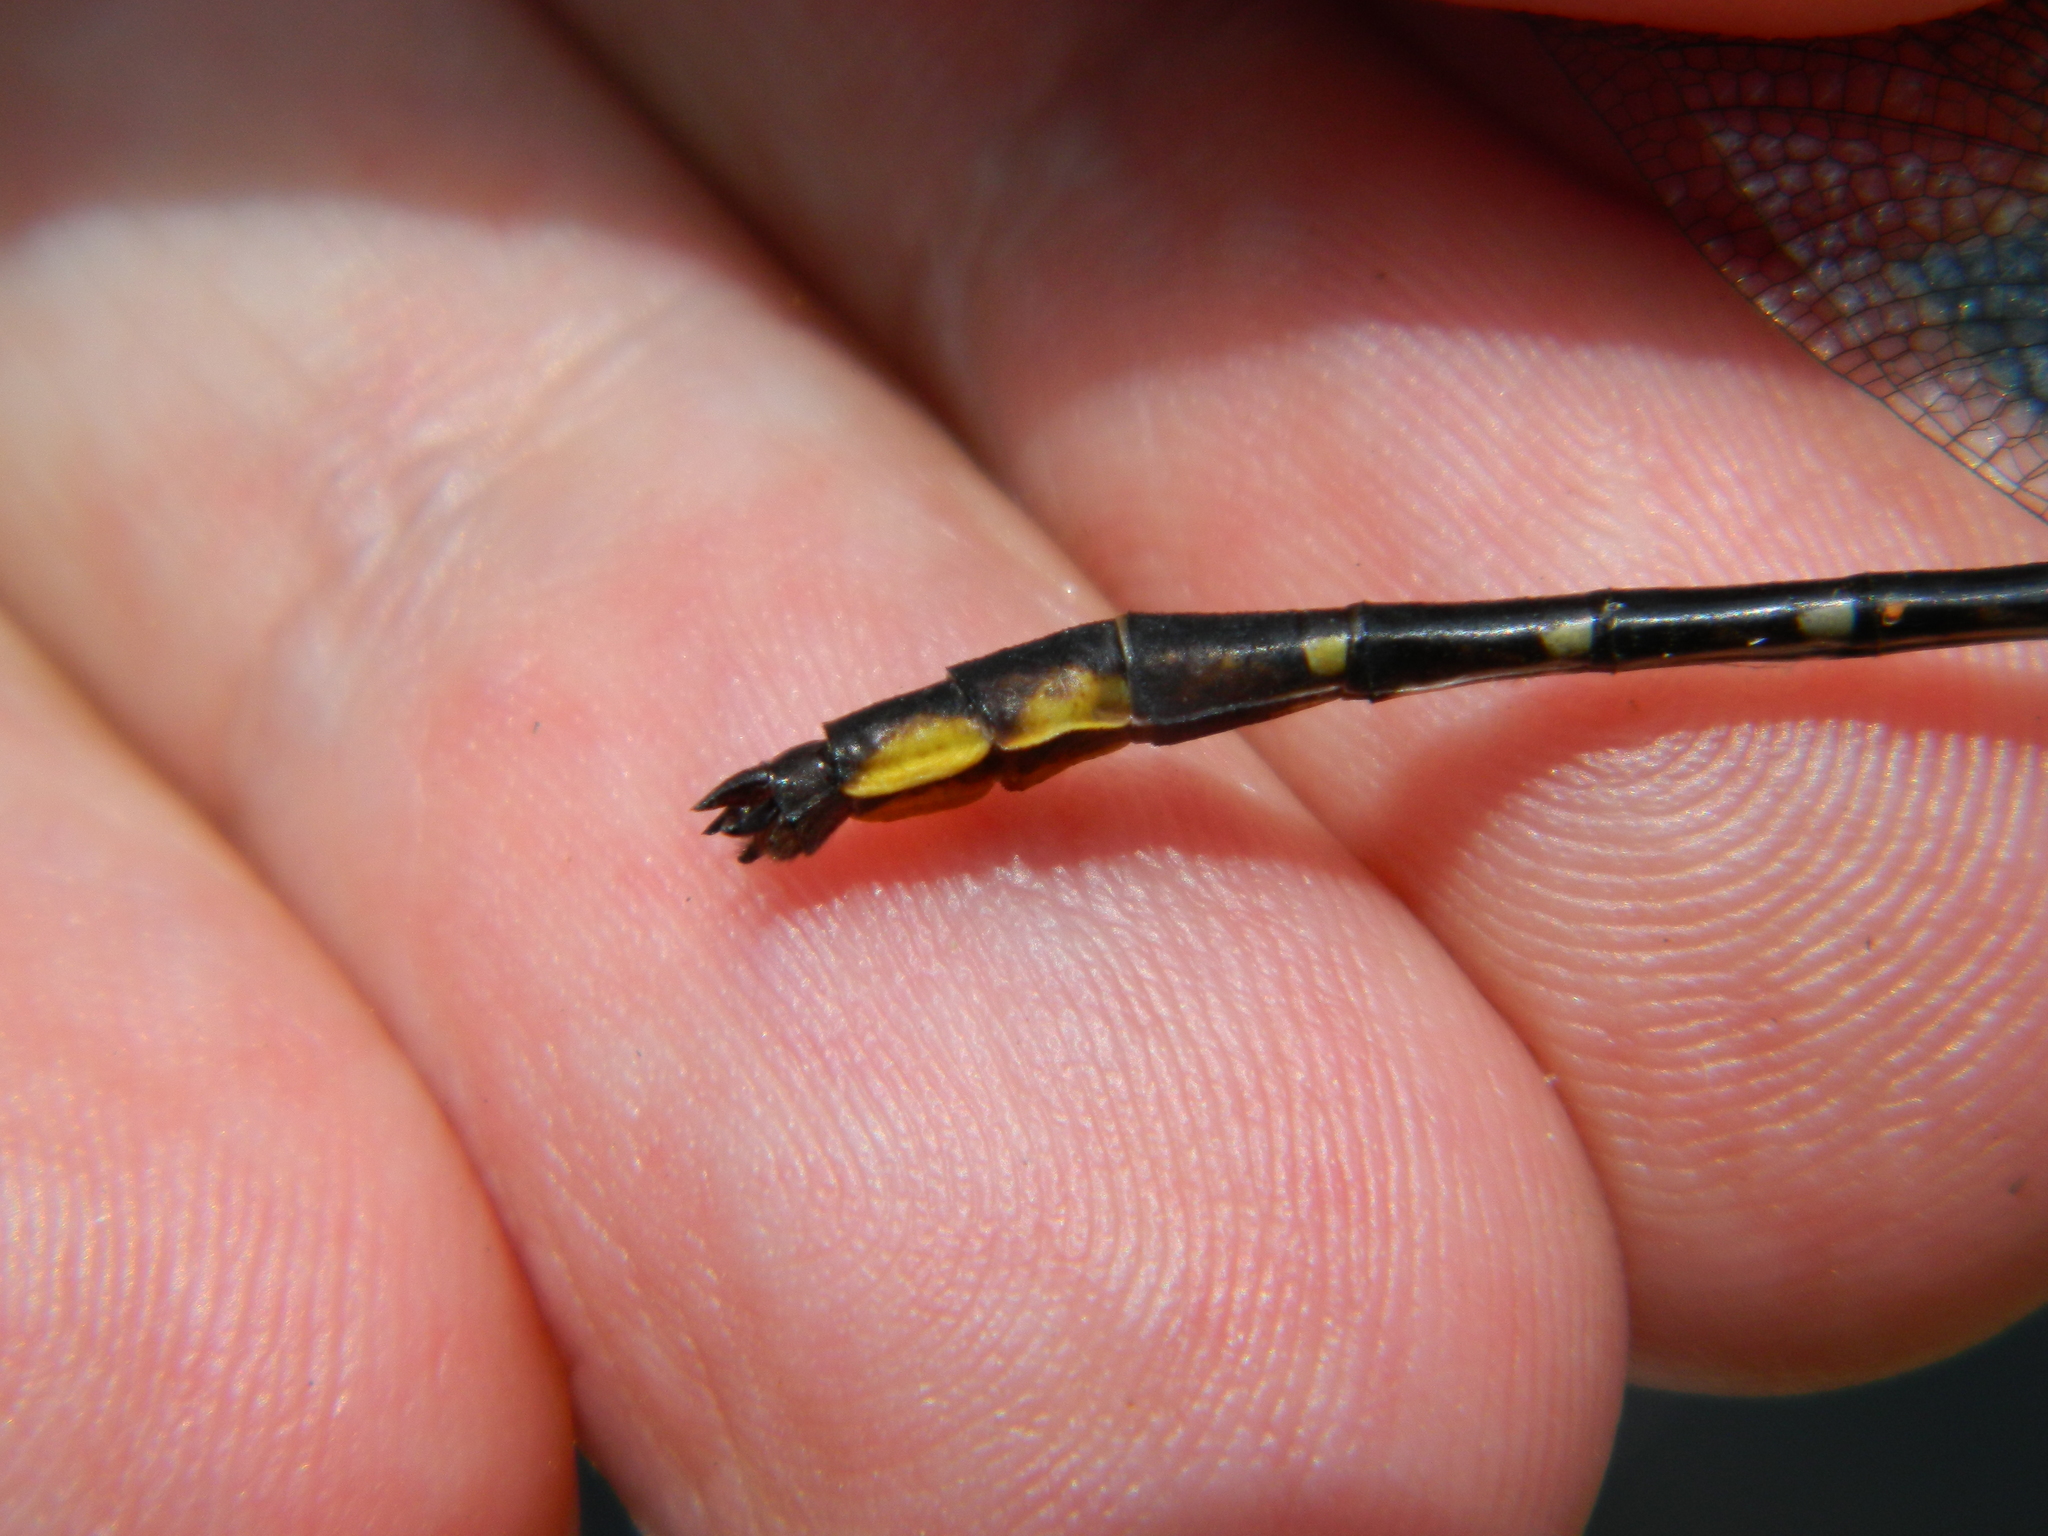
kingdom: Animalia
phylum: Arthropoda
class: Insecta
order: Odonata
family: Gomphidae
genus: Phanogomphus
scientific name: Phanogomphus exilis
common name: Lancet clubtail
